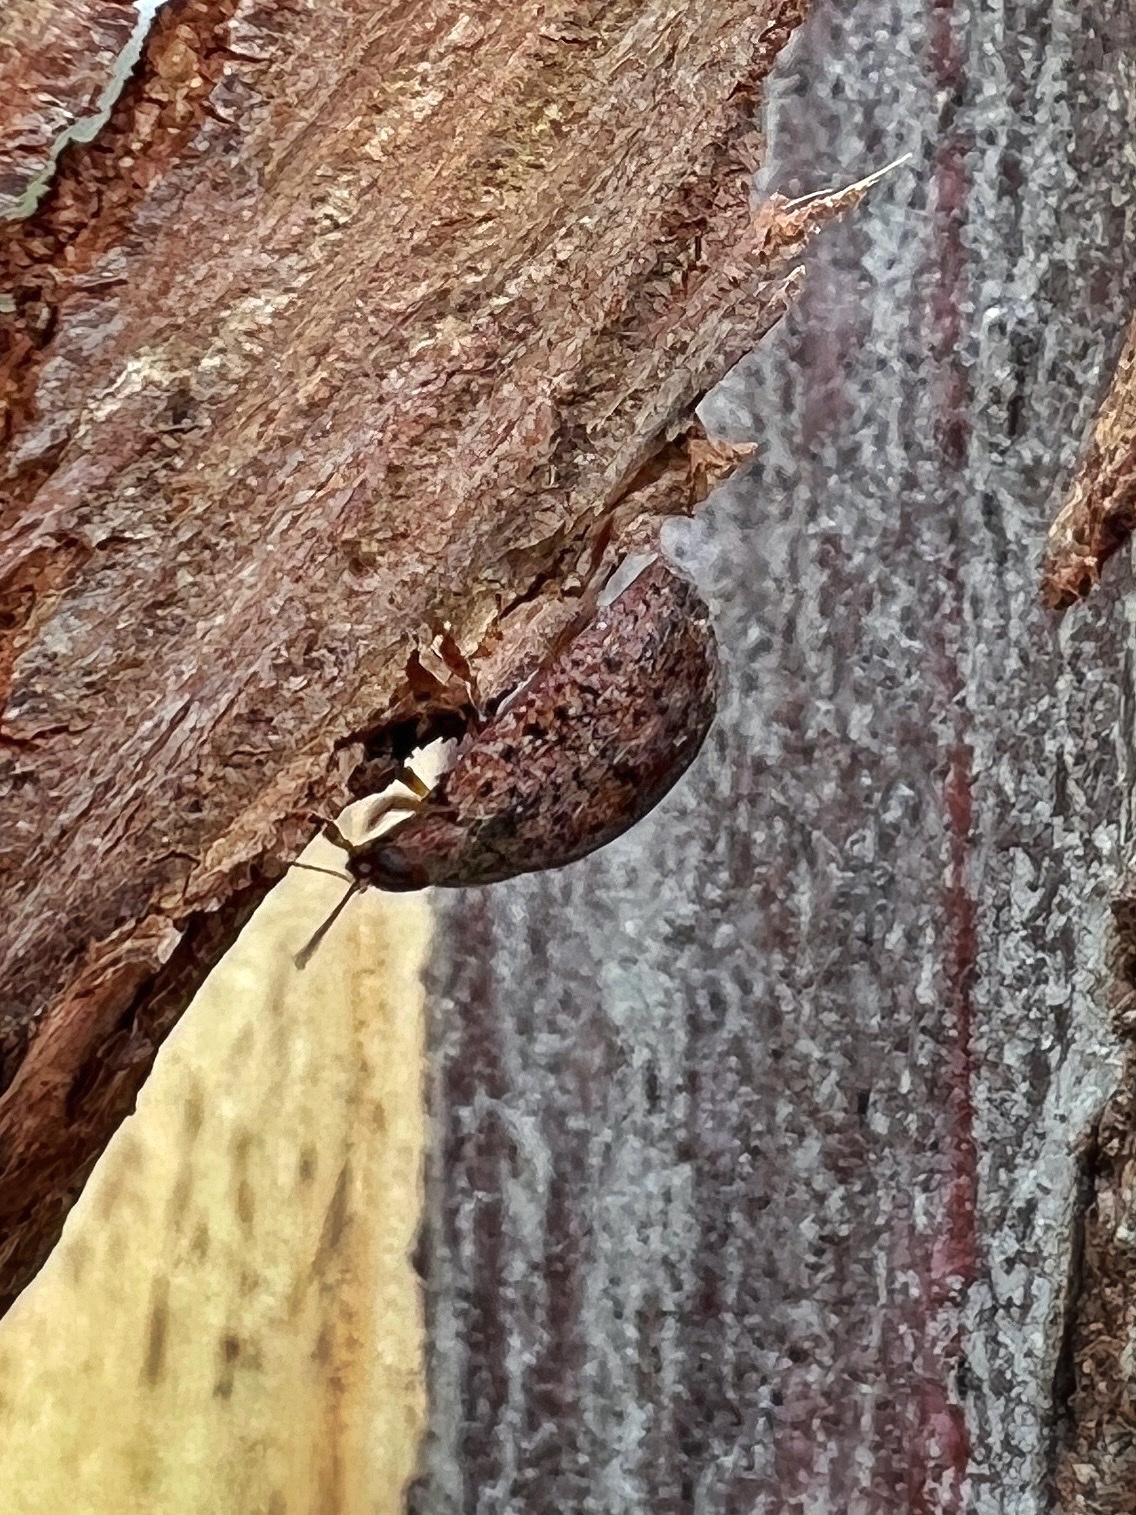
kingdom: Animalia
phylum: Arthropoda
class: Insecta
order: Coleoptera
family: Chrysomelidae
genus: Trachymela
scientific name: Trachymela sloanei
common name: Australian tortoise beetle
